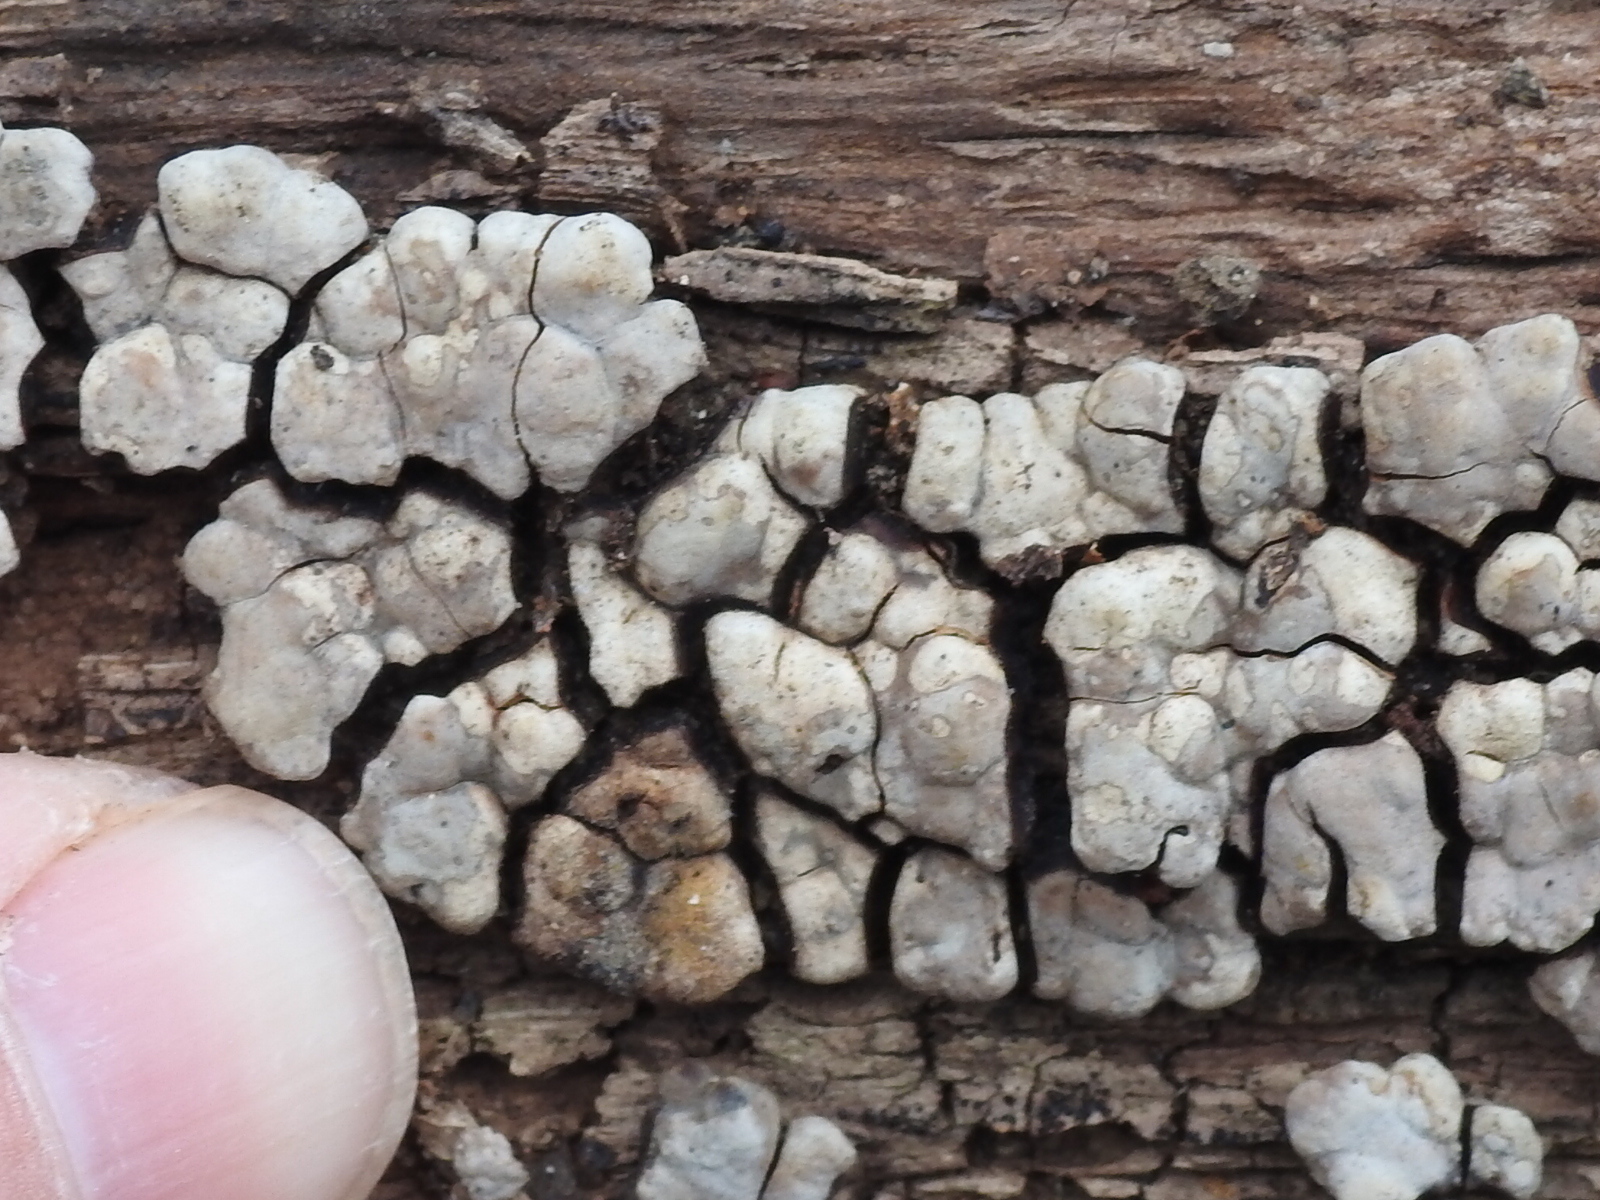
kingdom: Fungi
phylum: Basidiomycota
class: Agaricomycetes
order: Russulales
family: Stereaceae
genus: Xylobolus
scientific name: Xylobolus frustulatus
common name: Ceramic parchment
